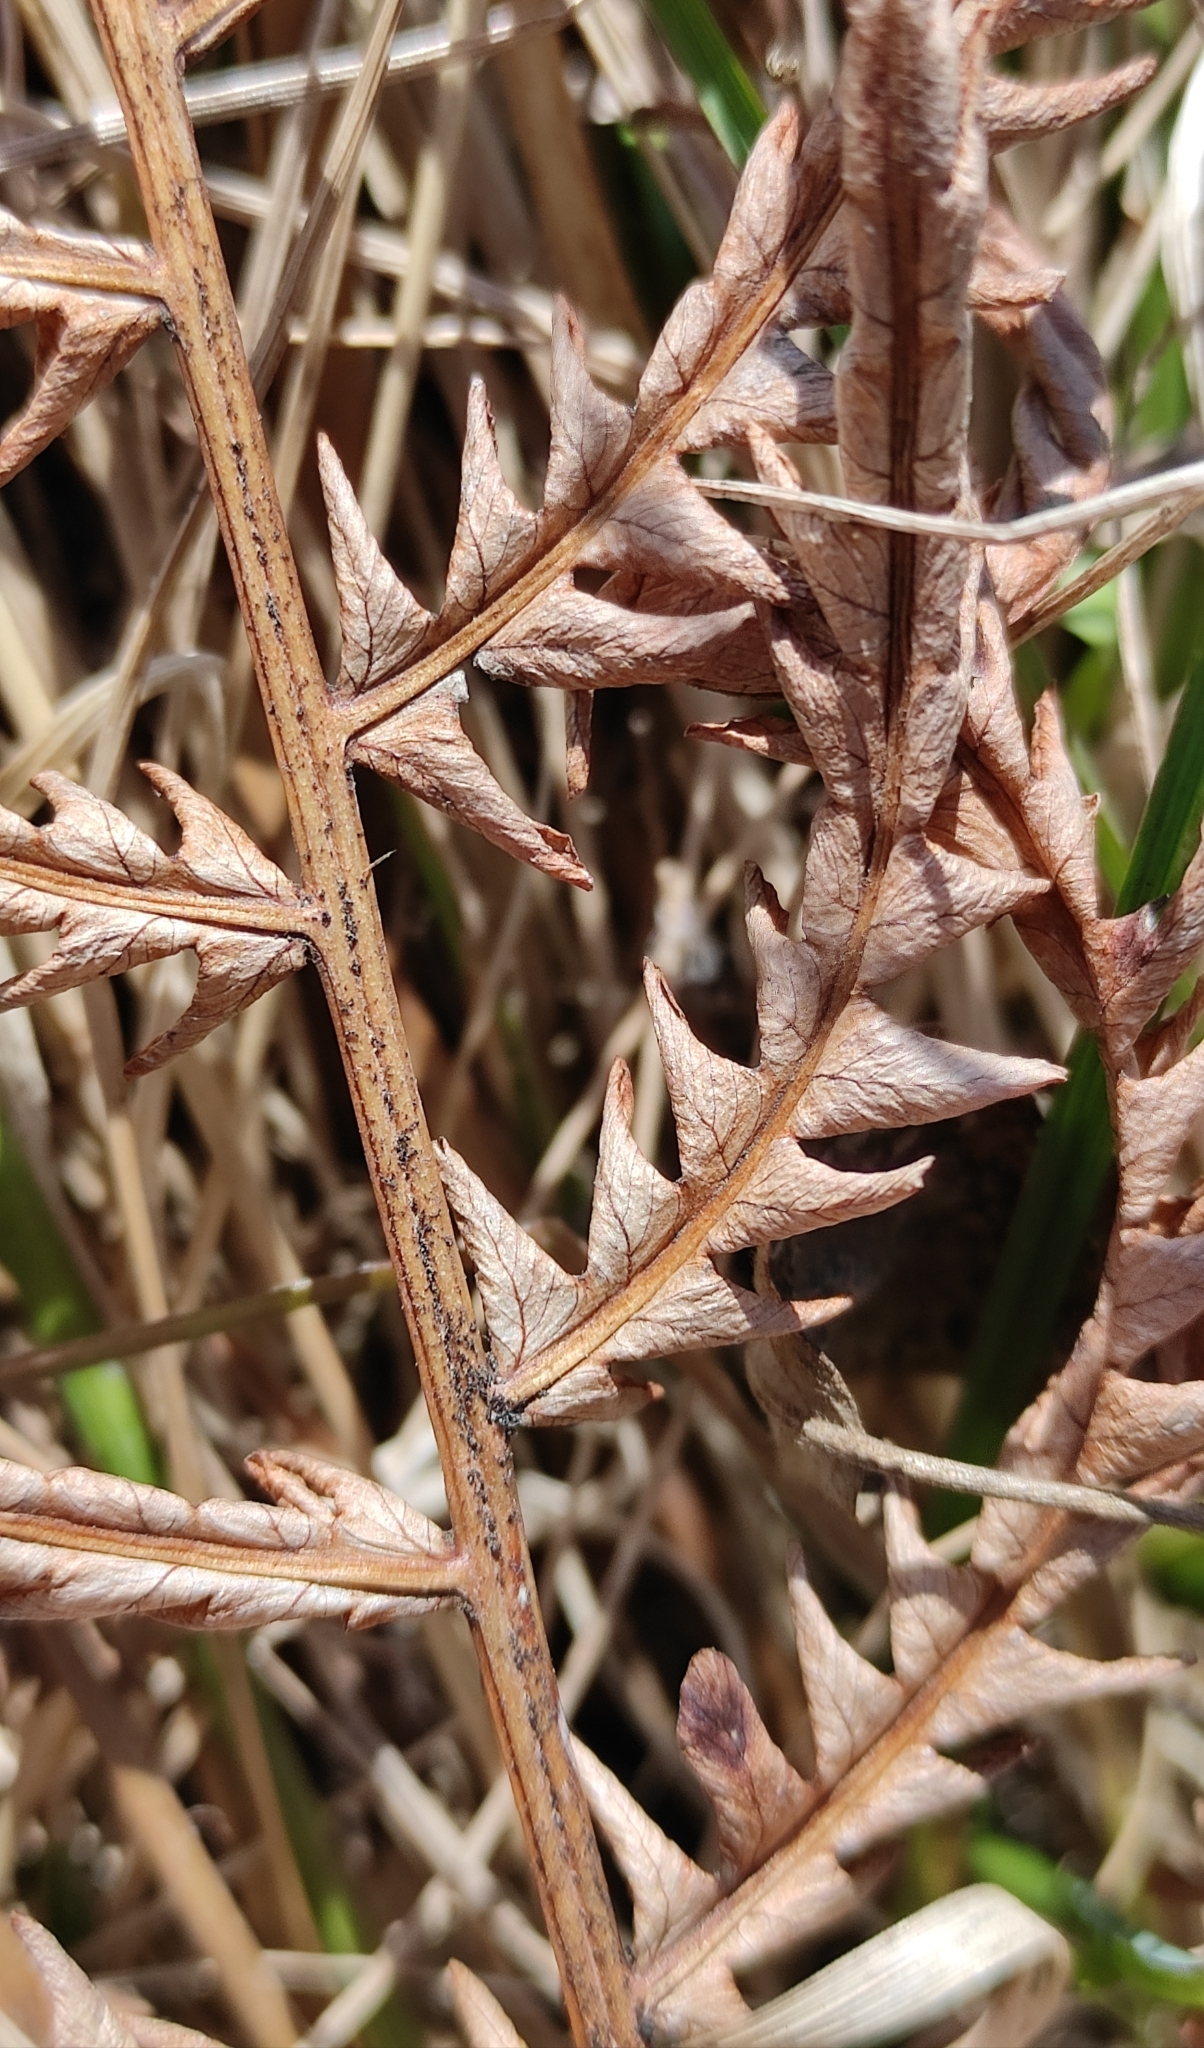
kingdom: Plantae
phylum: Tracheophyta
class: Polypodiopsida
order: Polypodiales
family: Onocleaceae
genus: Matteuccia
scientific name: Matteuccia struthiopteris
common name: Ostrich fern
